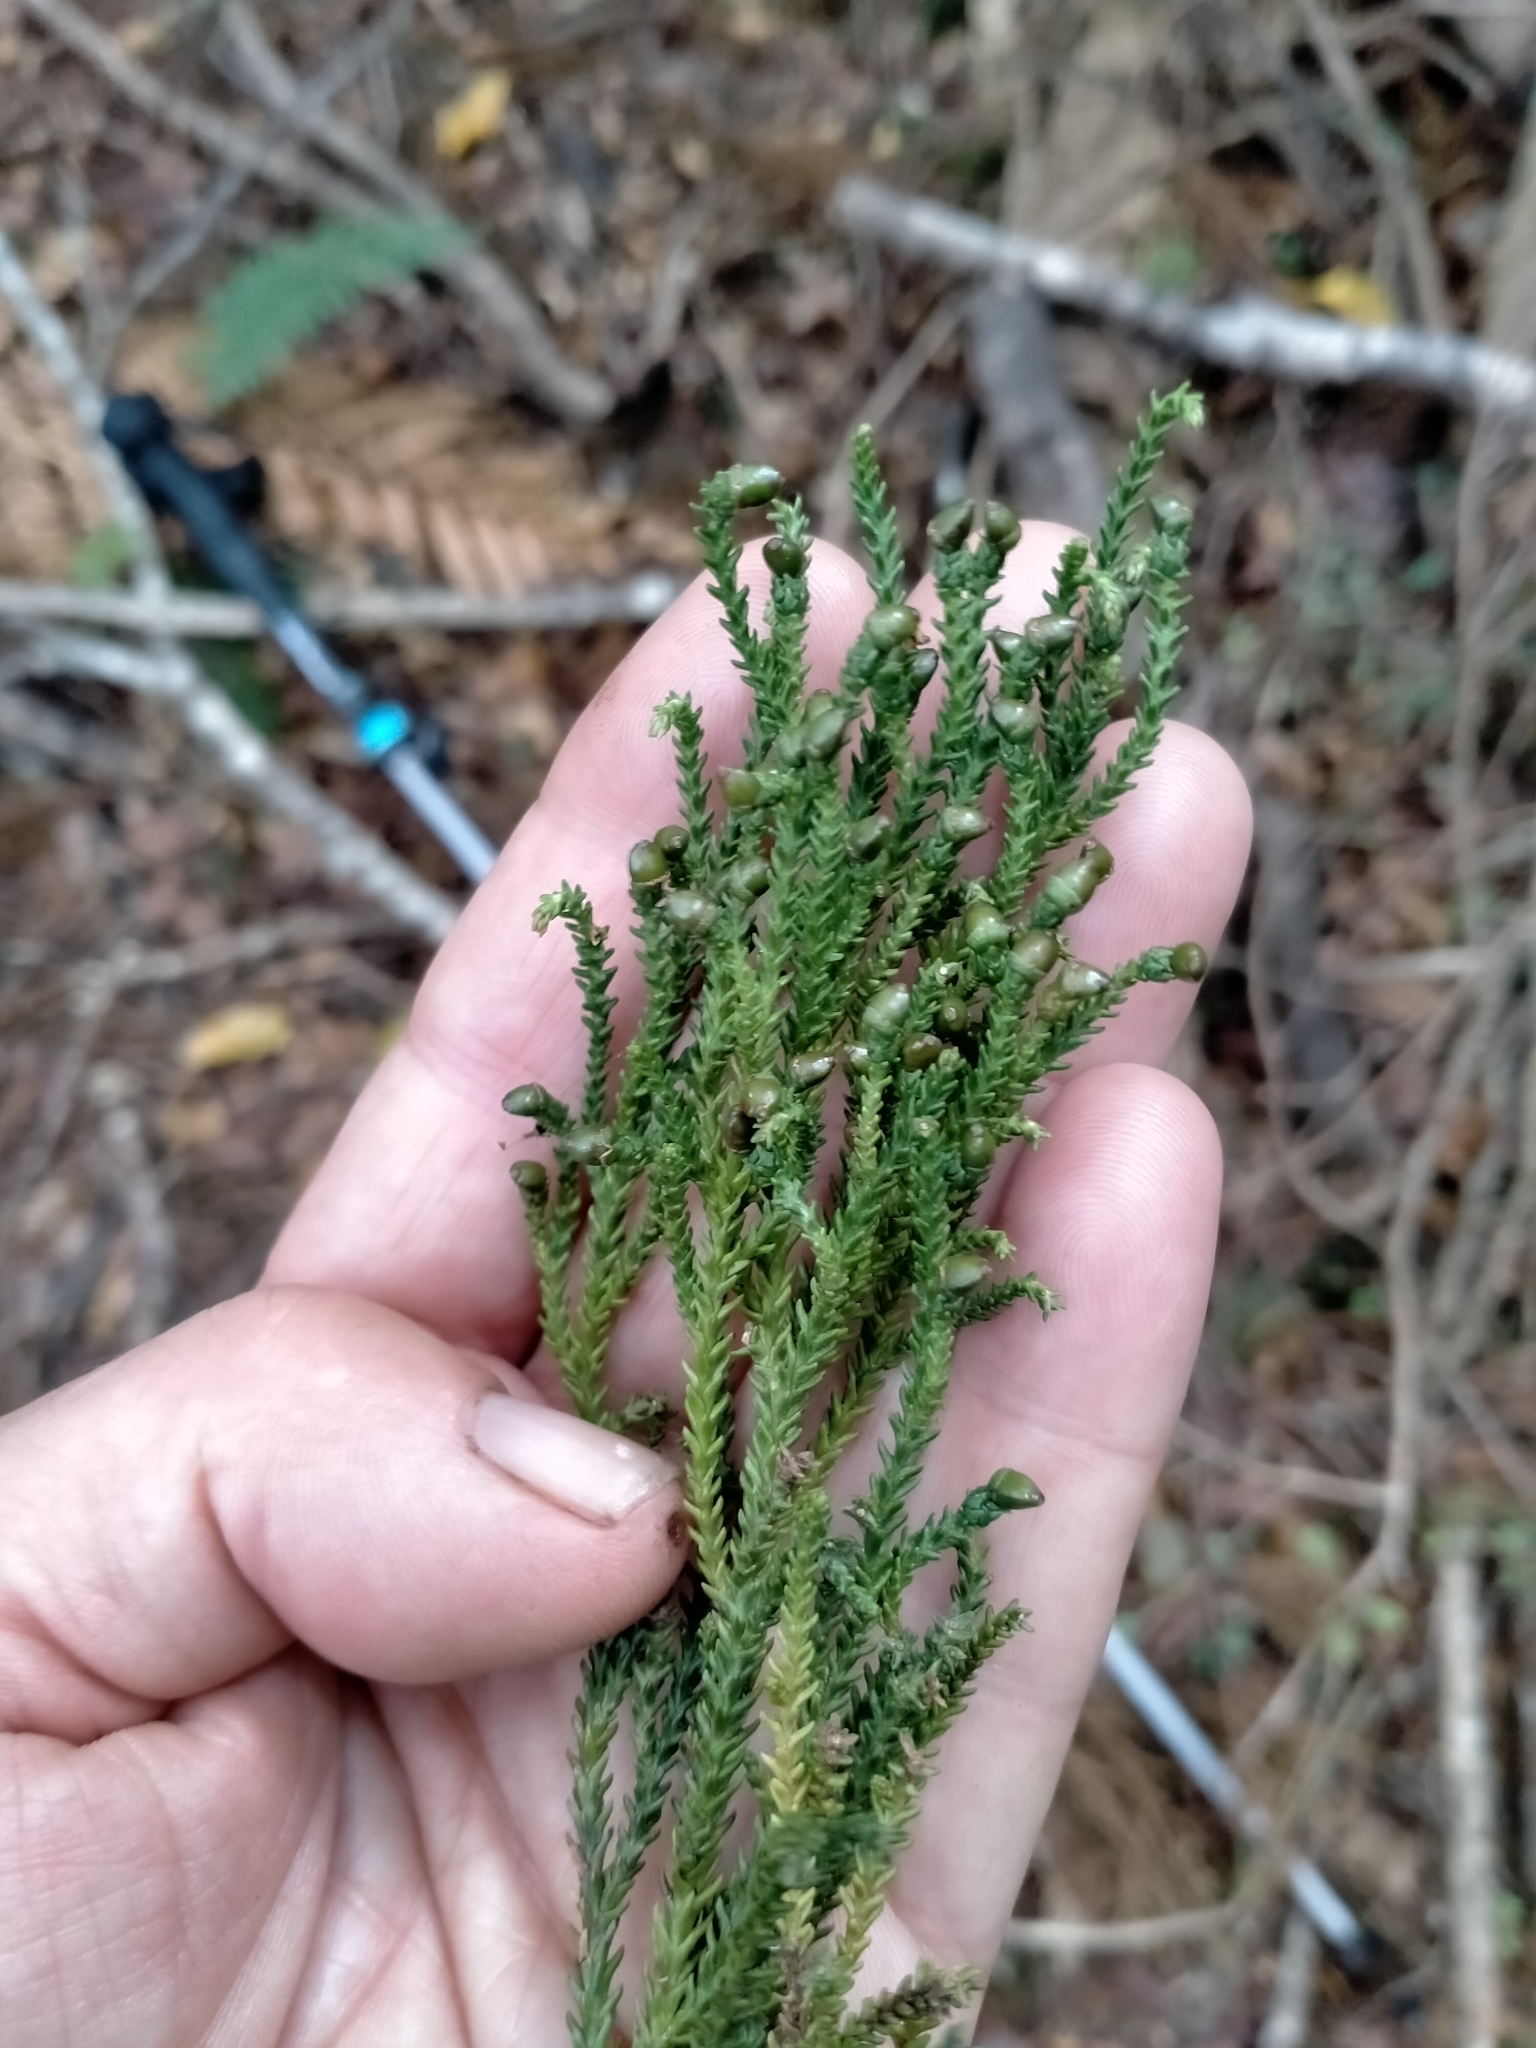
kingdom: Plantae
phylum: Tracheophyta
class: Pinopsida
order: Pinales
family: Podocarpaceae
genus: Dacrydium
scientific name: Dacrydium cupressinum
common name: Red pine
